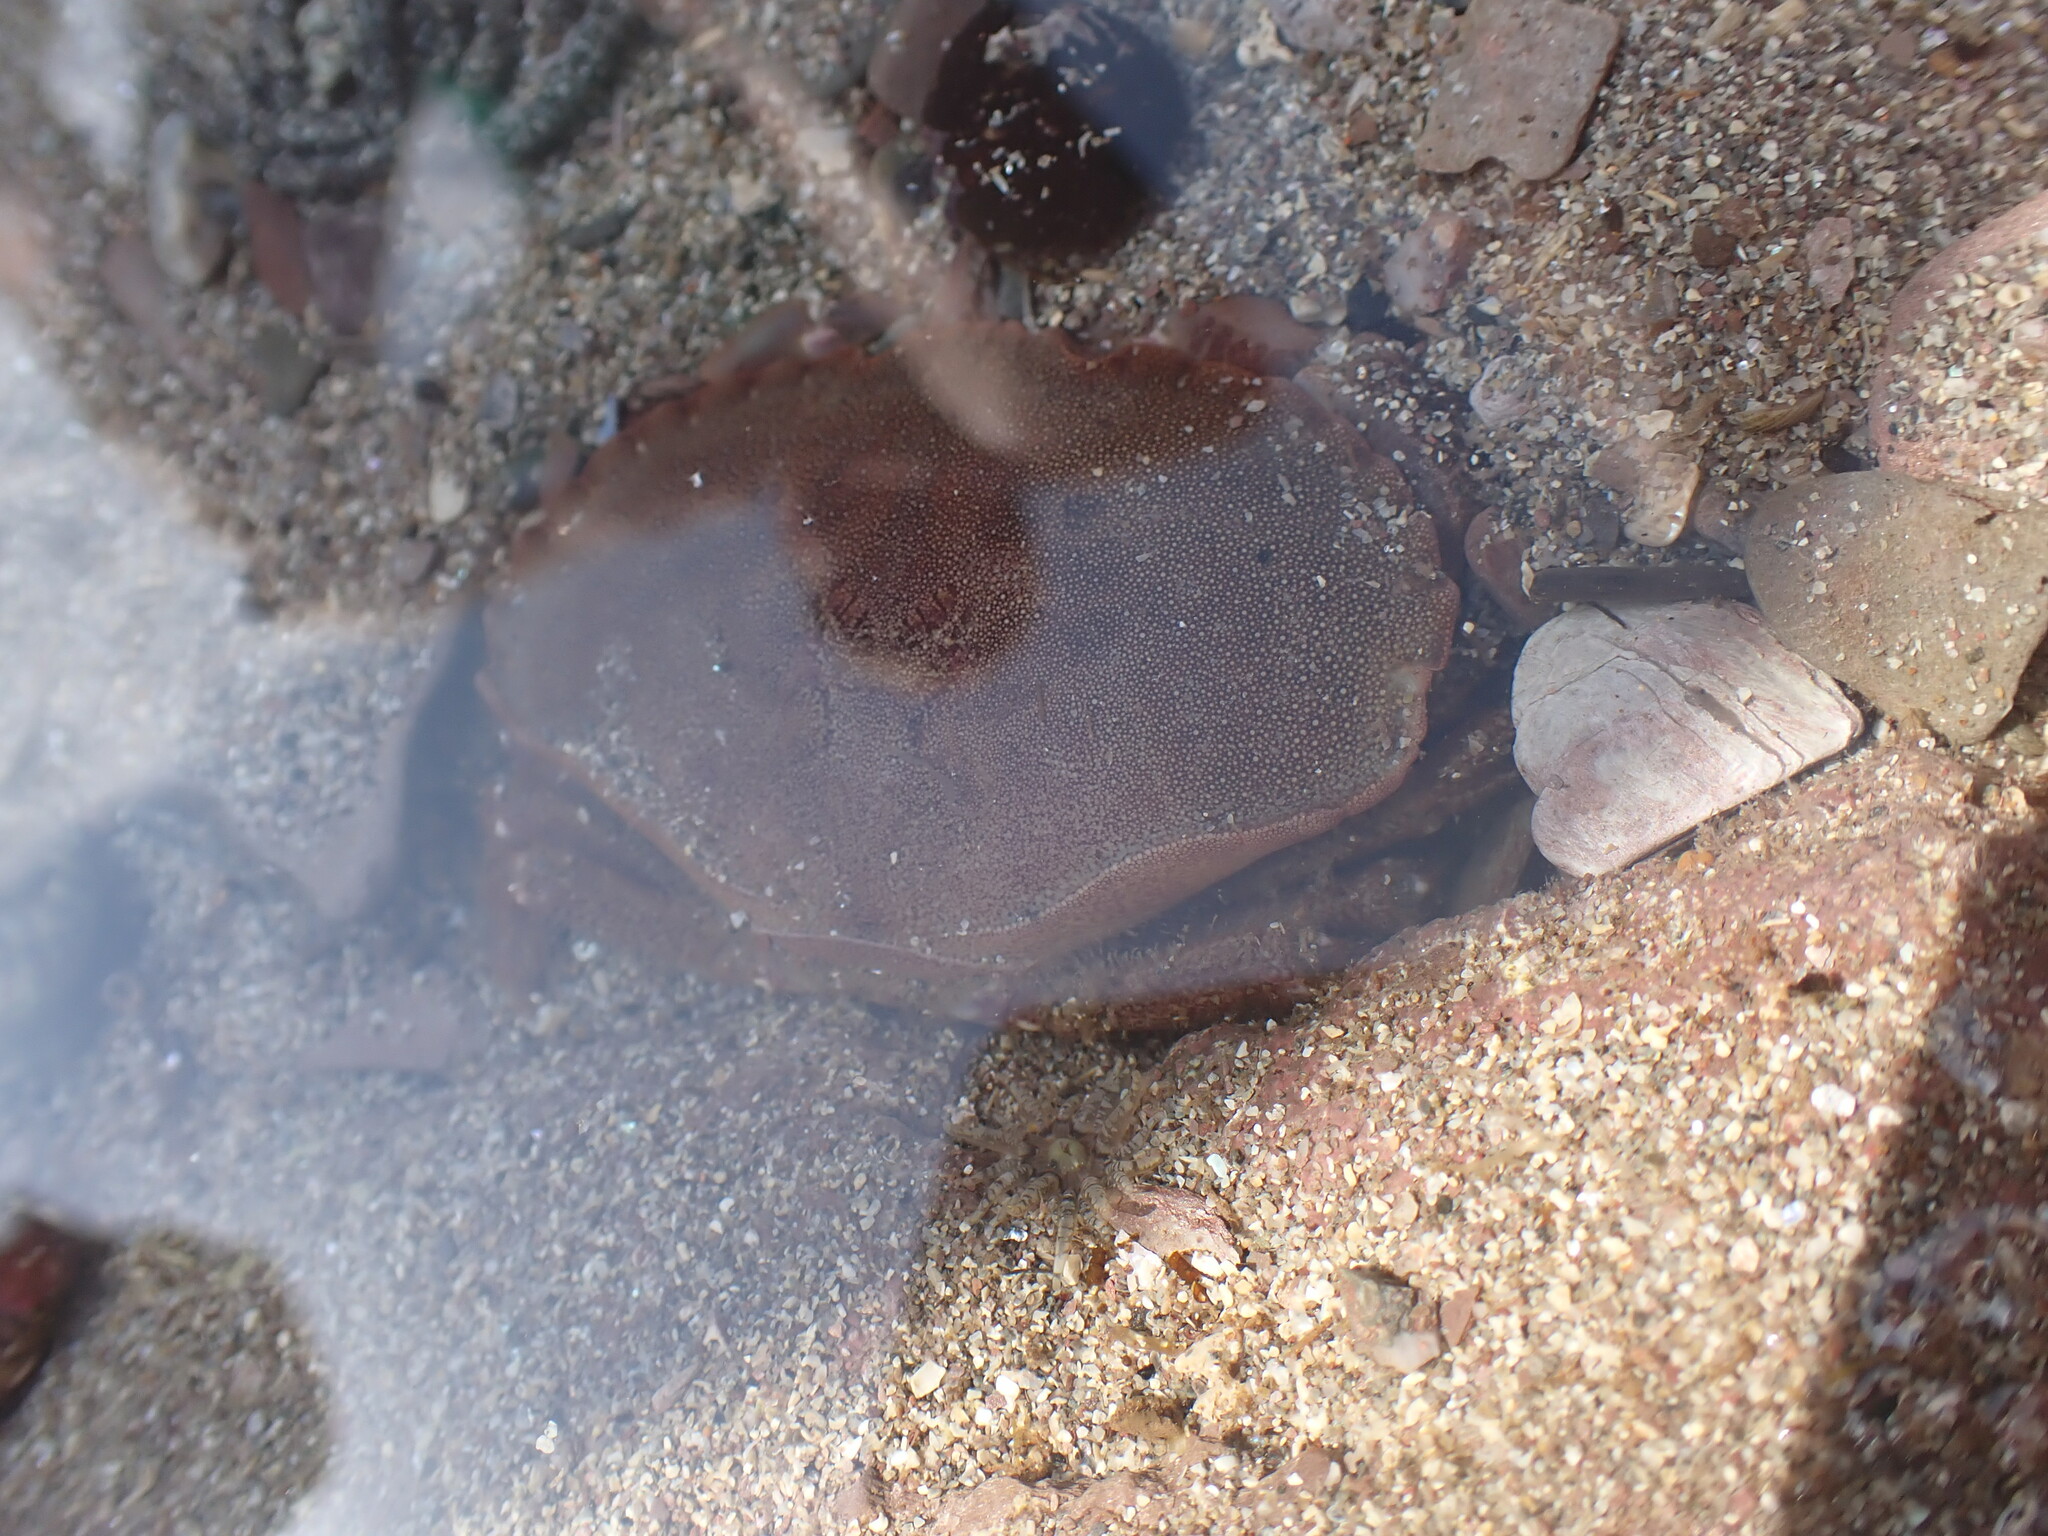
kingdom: Animalia
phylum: Arthropoda
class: Malacostraca
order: Decapoda
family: Cancridae
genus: Cancer
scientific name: Cancer pagurus
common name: Edible crab
